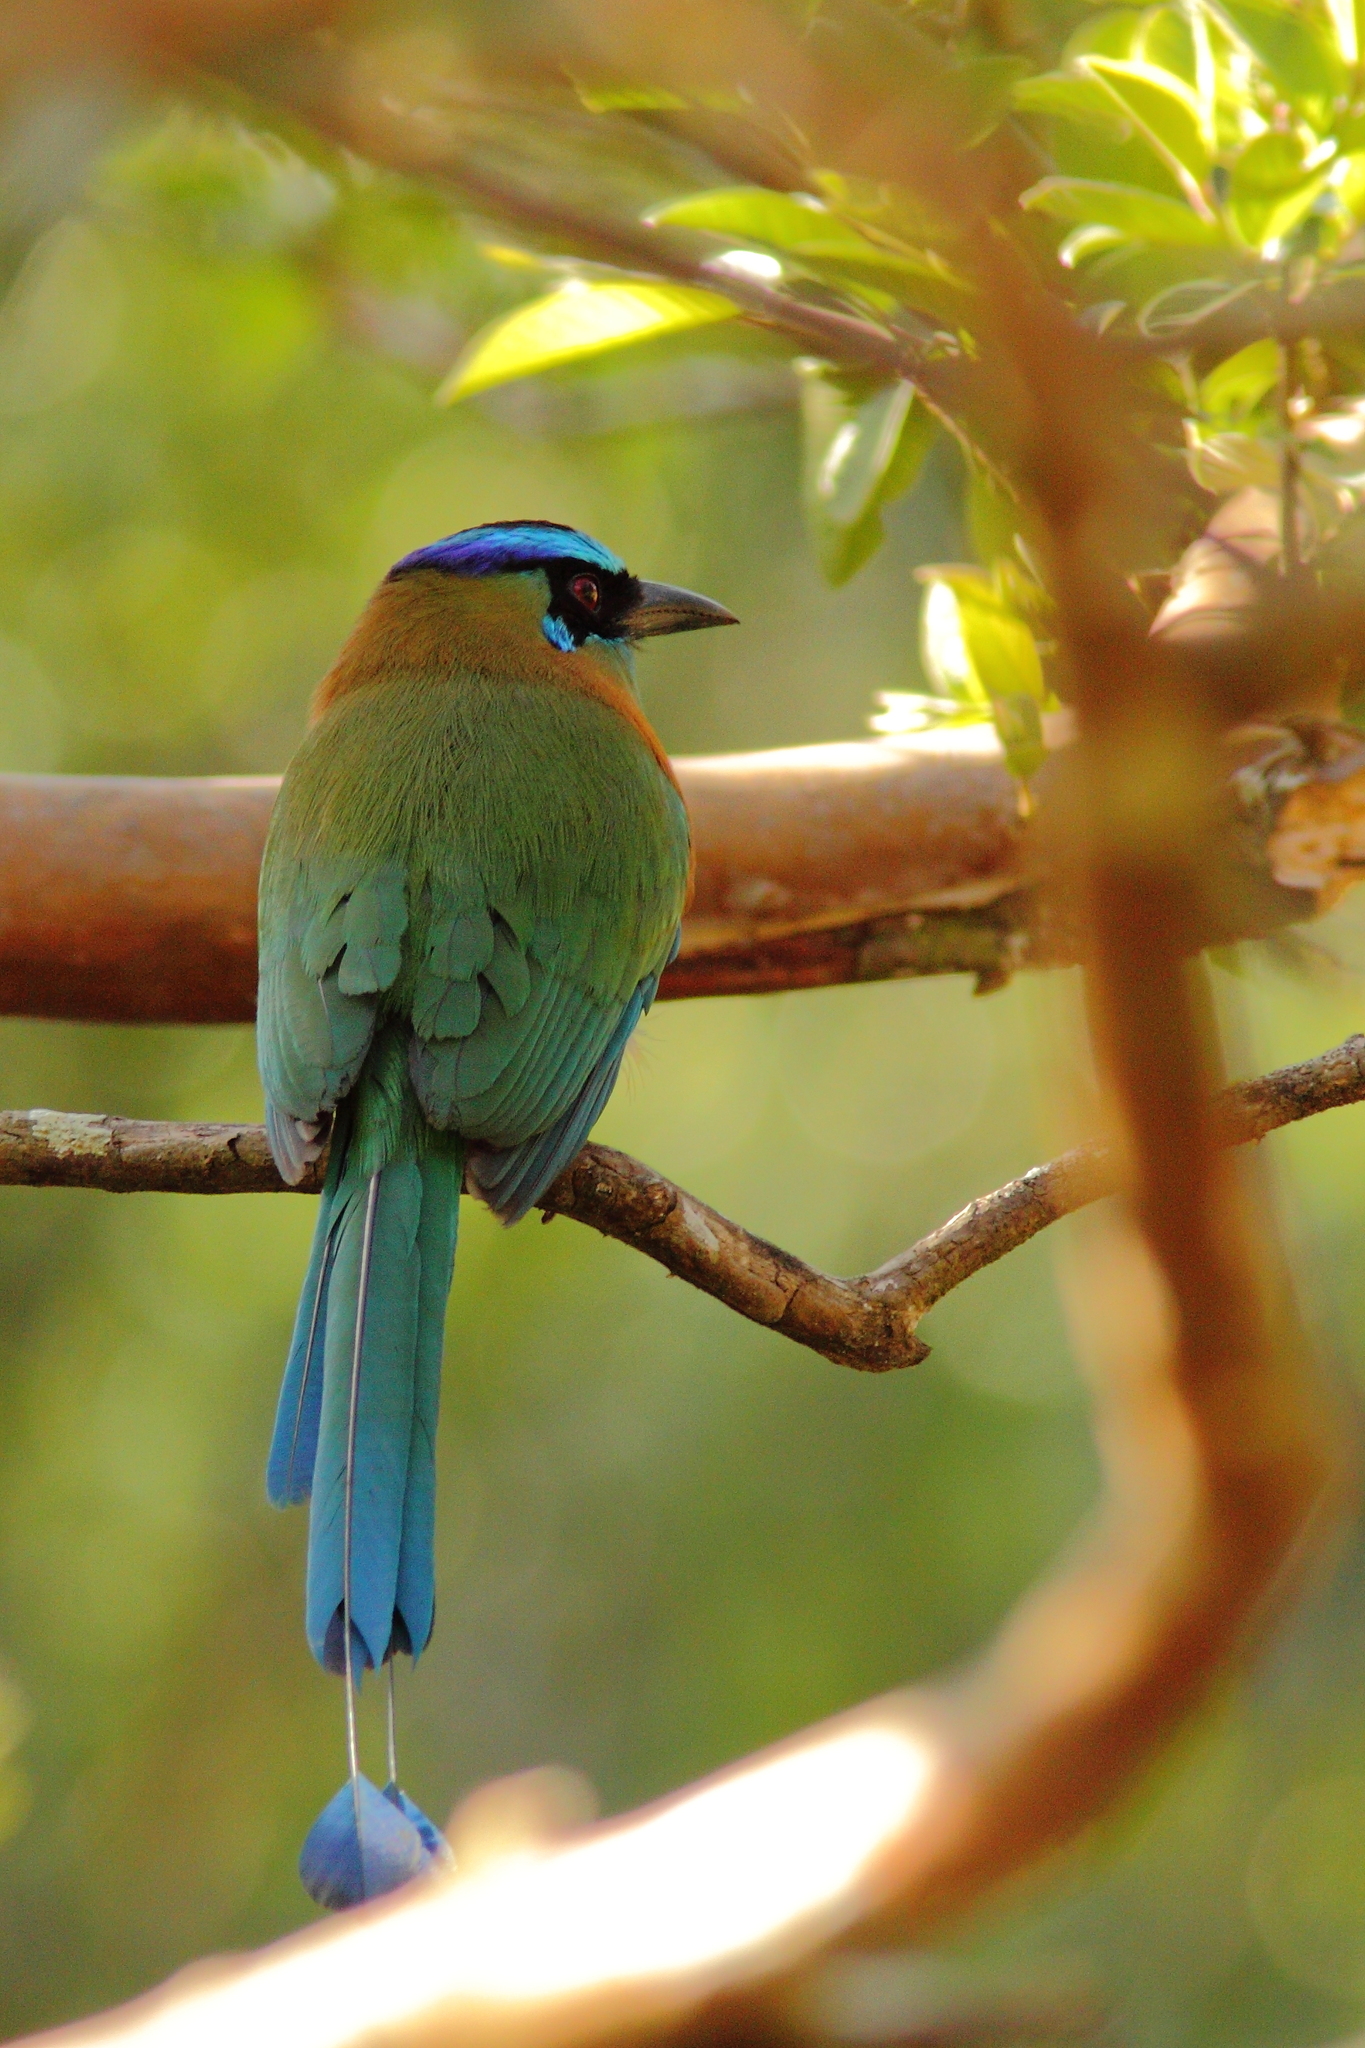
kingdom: Animalia
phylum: Chordata
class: Aves
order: Coraciiformes
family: Momotidae
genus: Momotus
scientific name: Momotus lessonii
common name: Lesson's motmot
